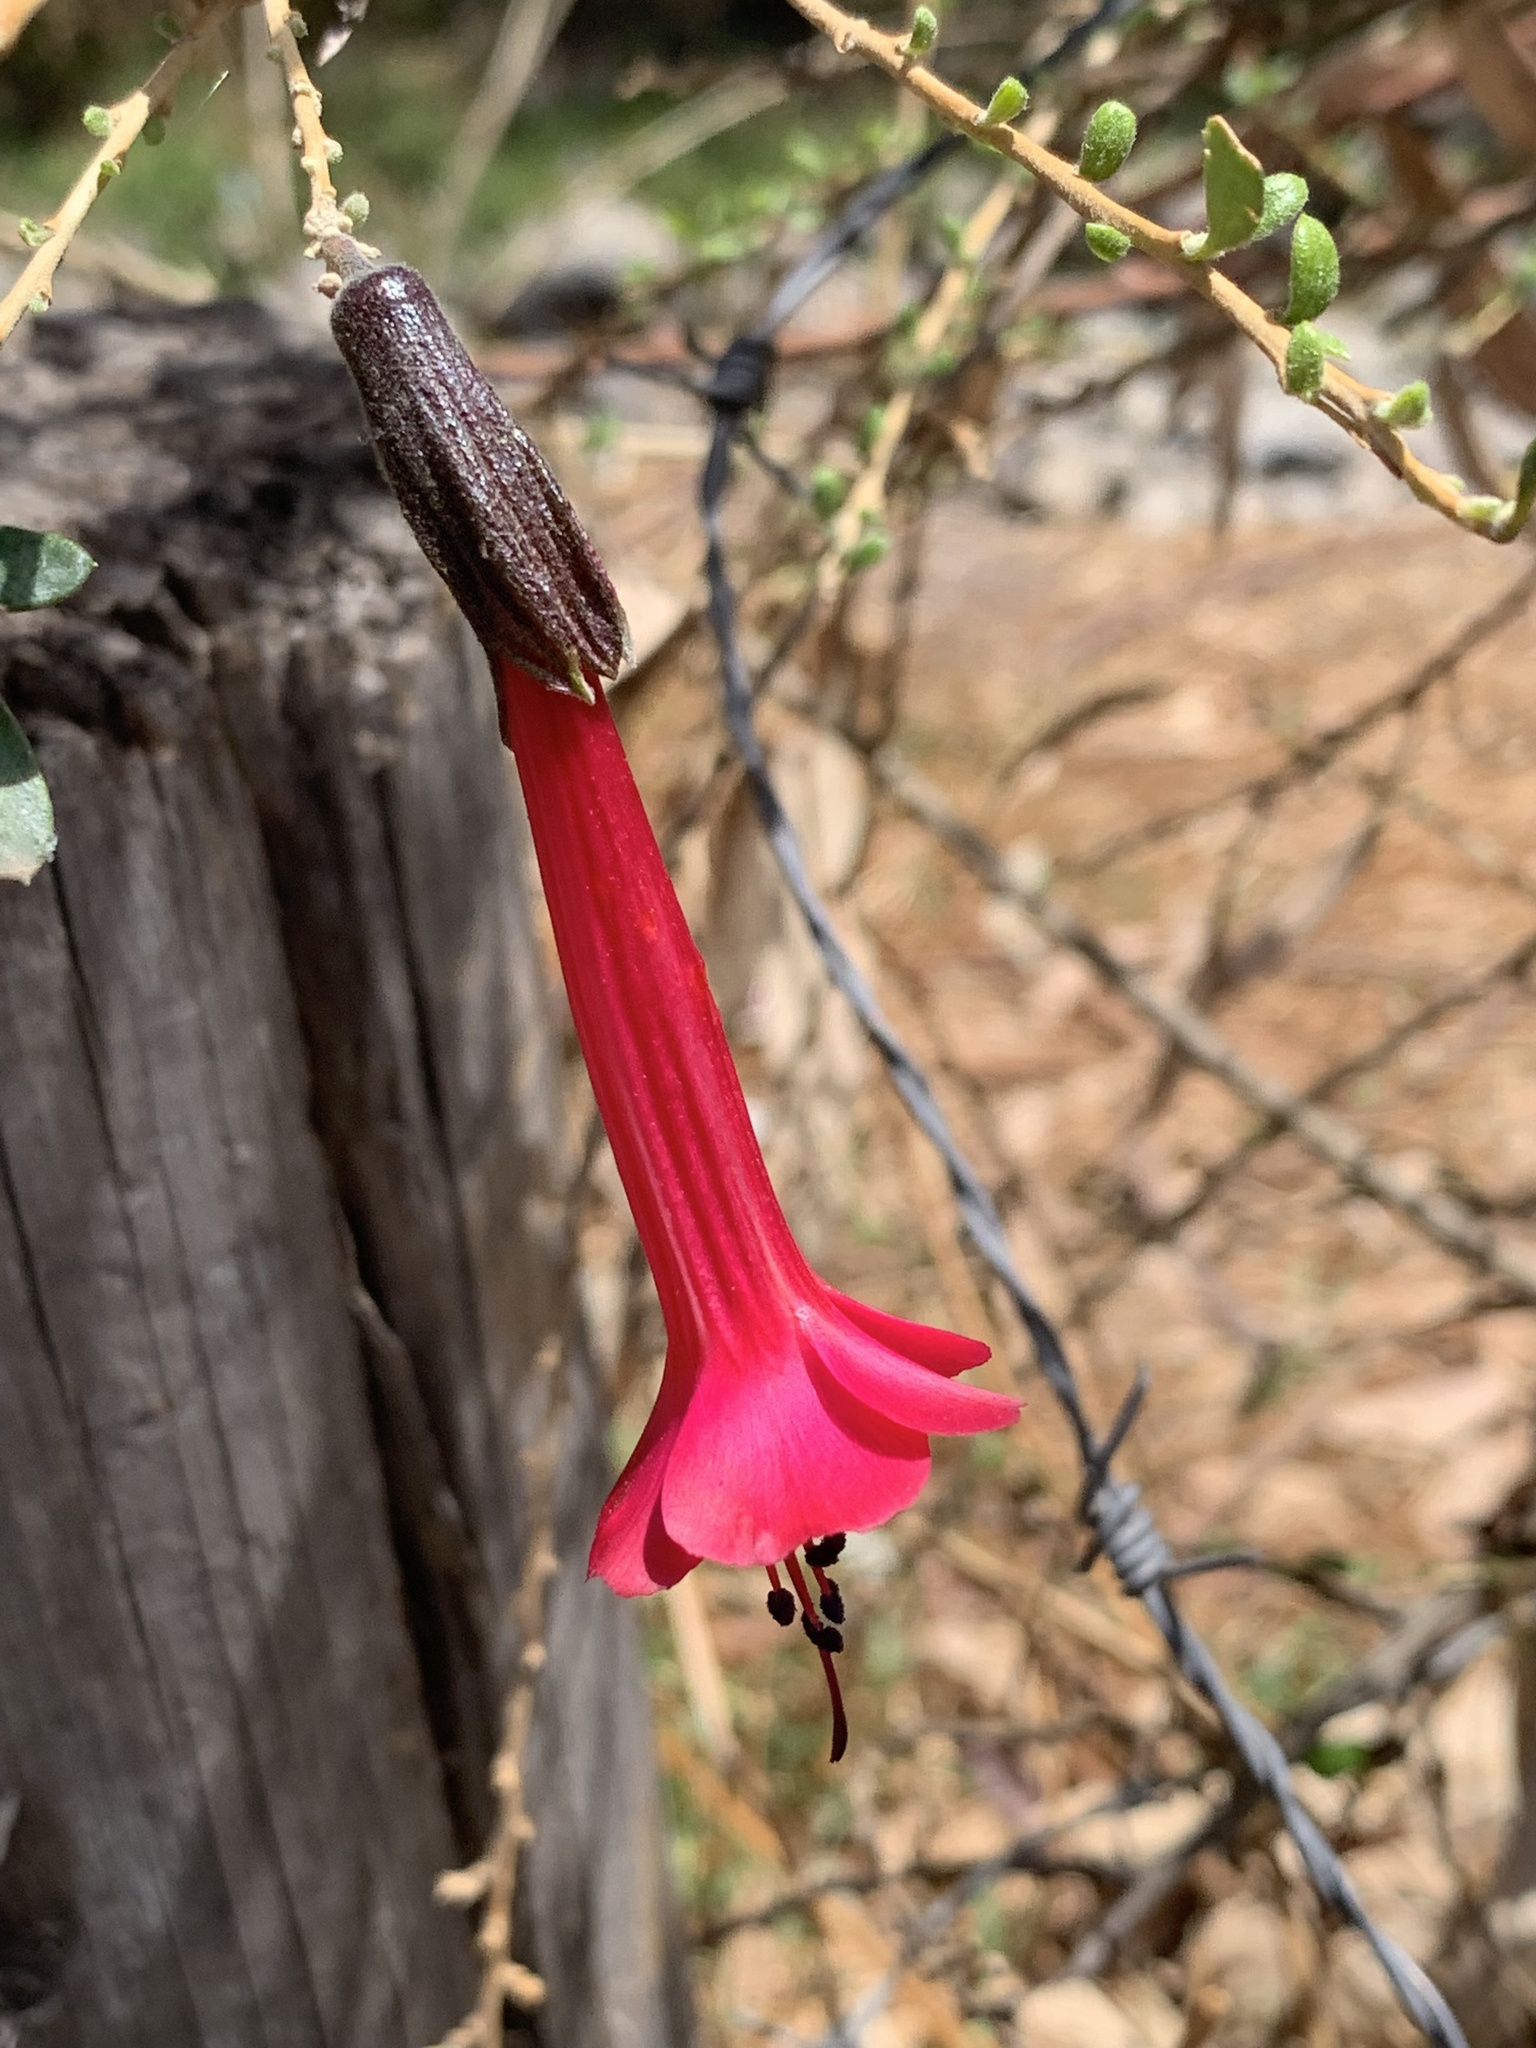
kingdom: Plantae
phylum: Tracheophyta
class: Magnoliopsida
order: Ericales
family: Polemoniaceae
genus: Cantua
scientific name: Cantua buxifolia
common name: Sacred-flower-of-the-incas
